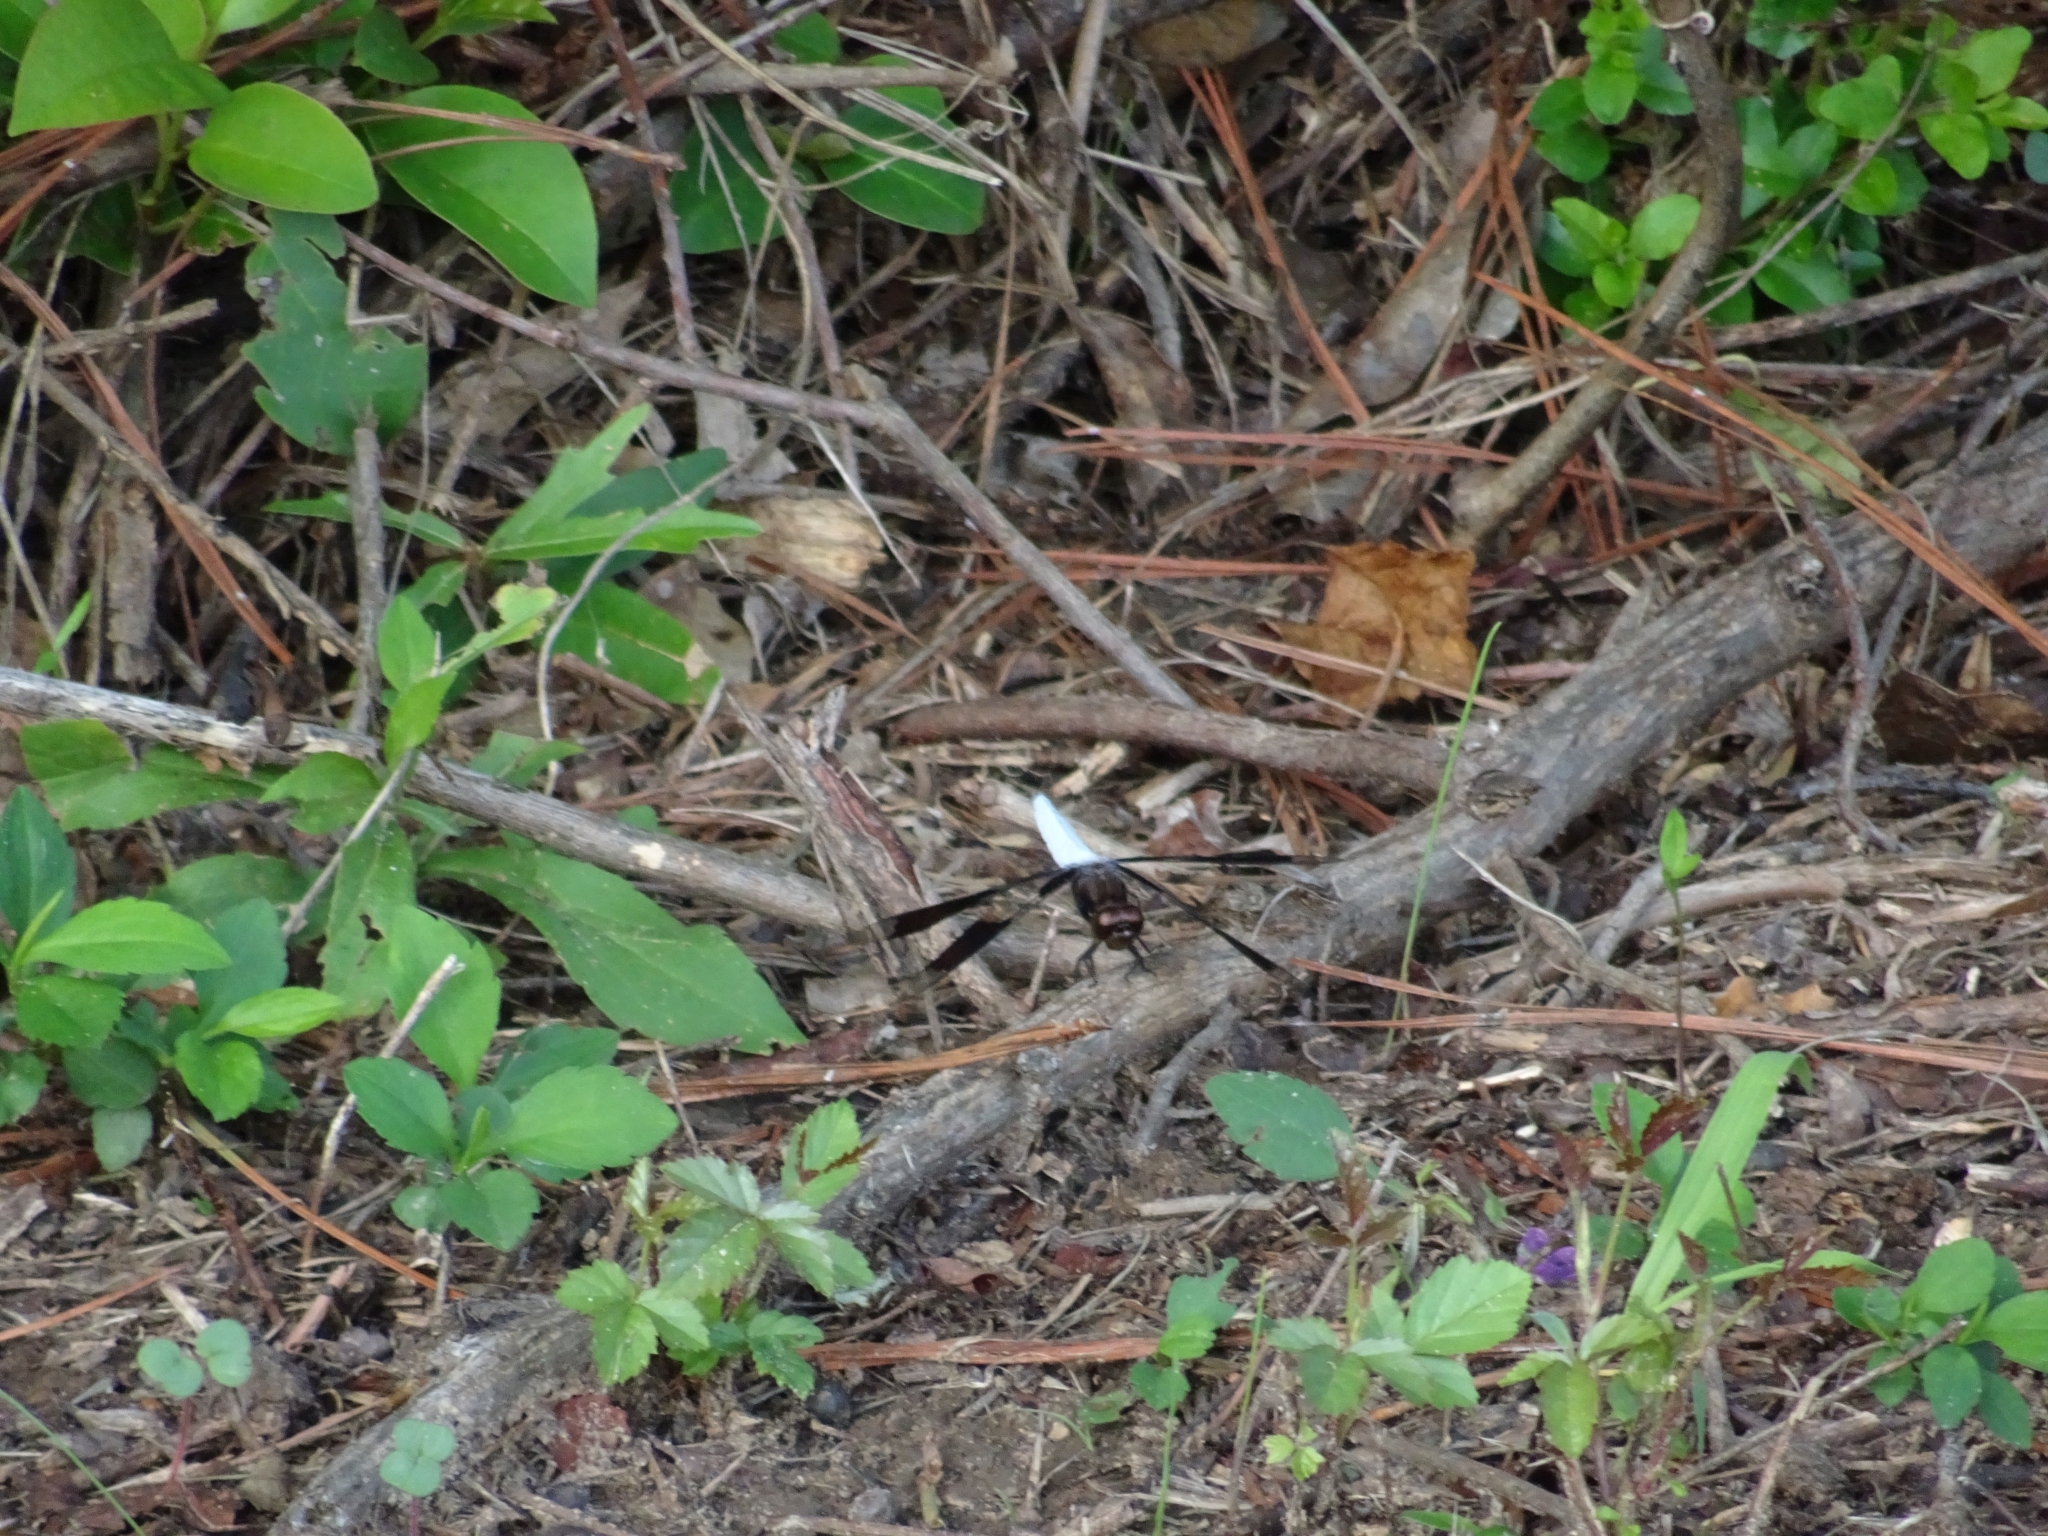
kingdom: Animalia
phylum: Arthropoda
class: Insecta
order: Odonata
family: Libellulidae
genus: Plathemis
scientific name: Plathemis lydia
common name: Common whitetail
